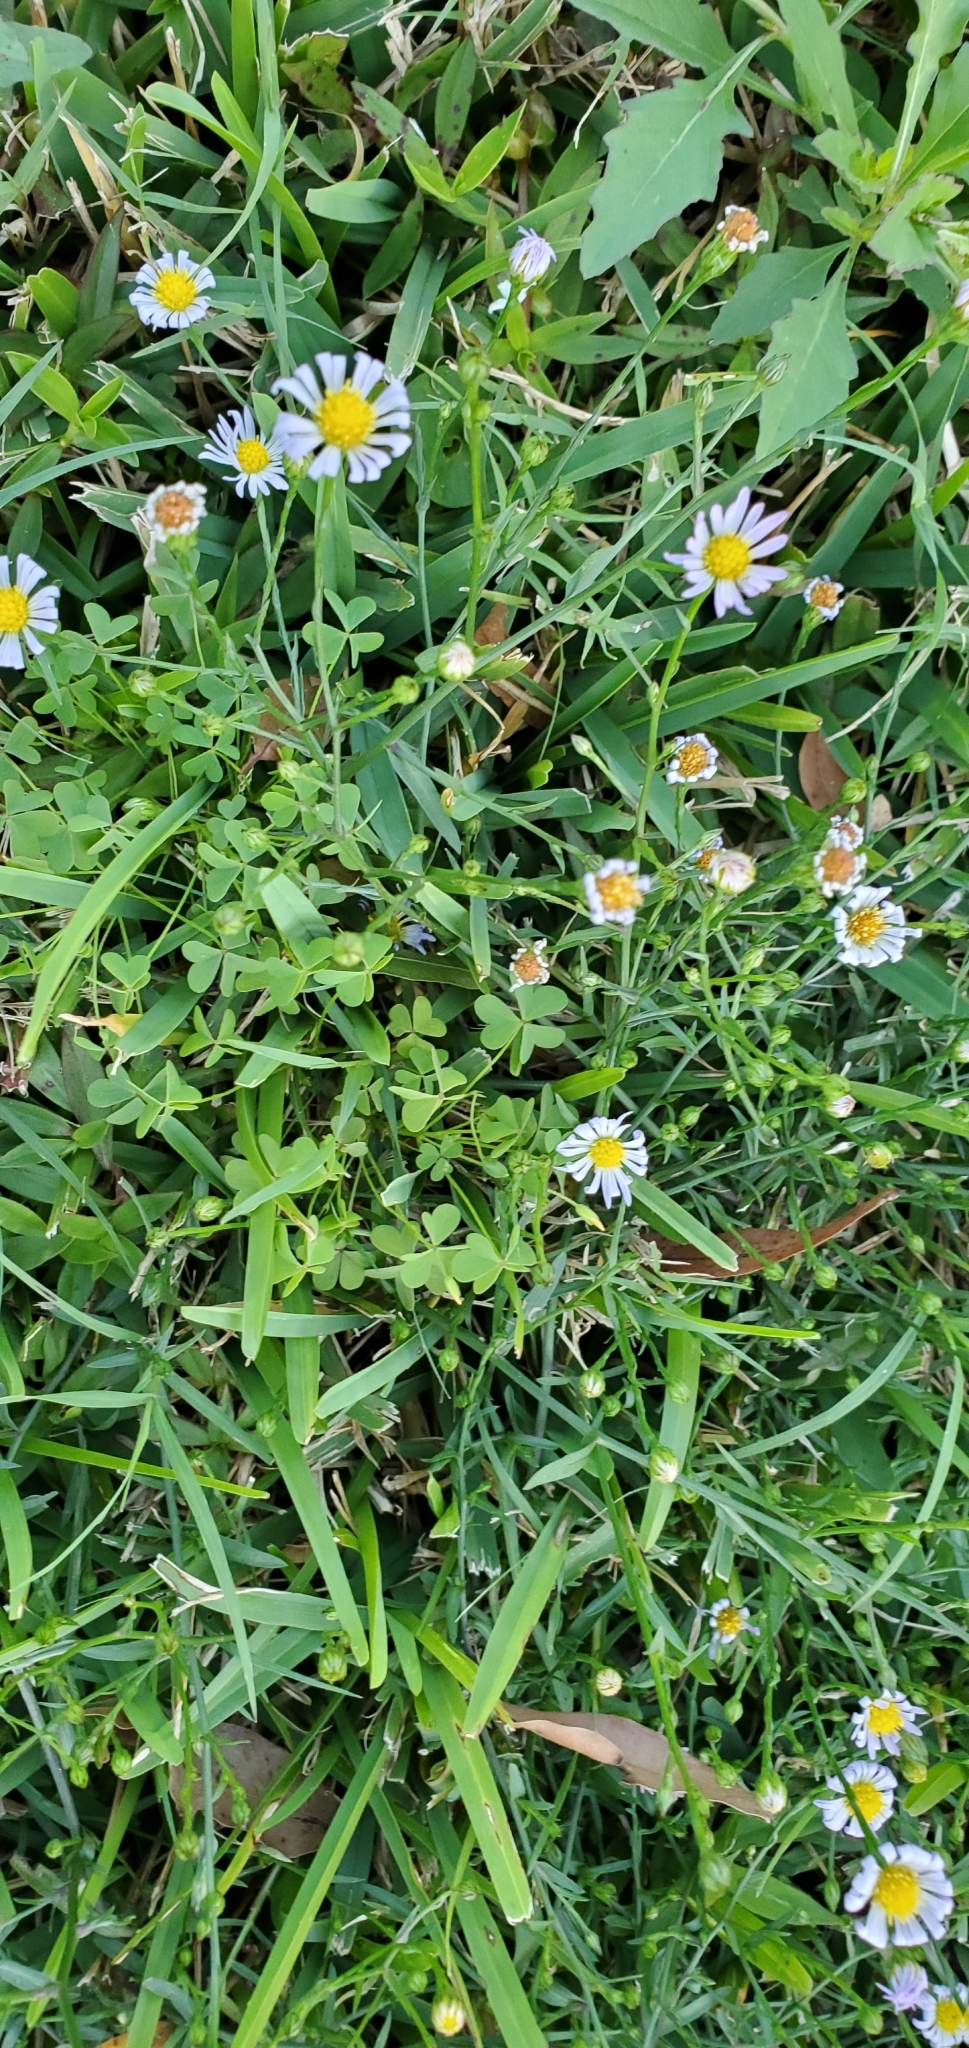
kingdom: Plantae
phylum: Tracheophyta
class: Magnoliopsida
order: Asterales
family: Asteraceae
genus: Symphyotrichum
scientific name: Symphyotrichum divaricatum
